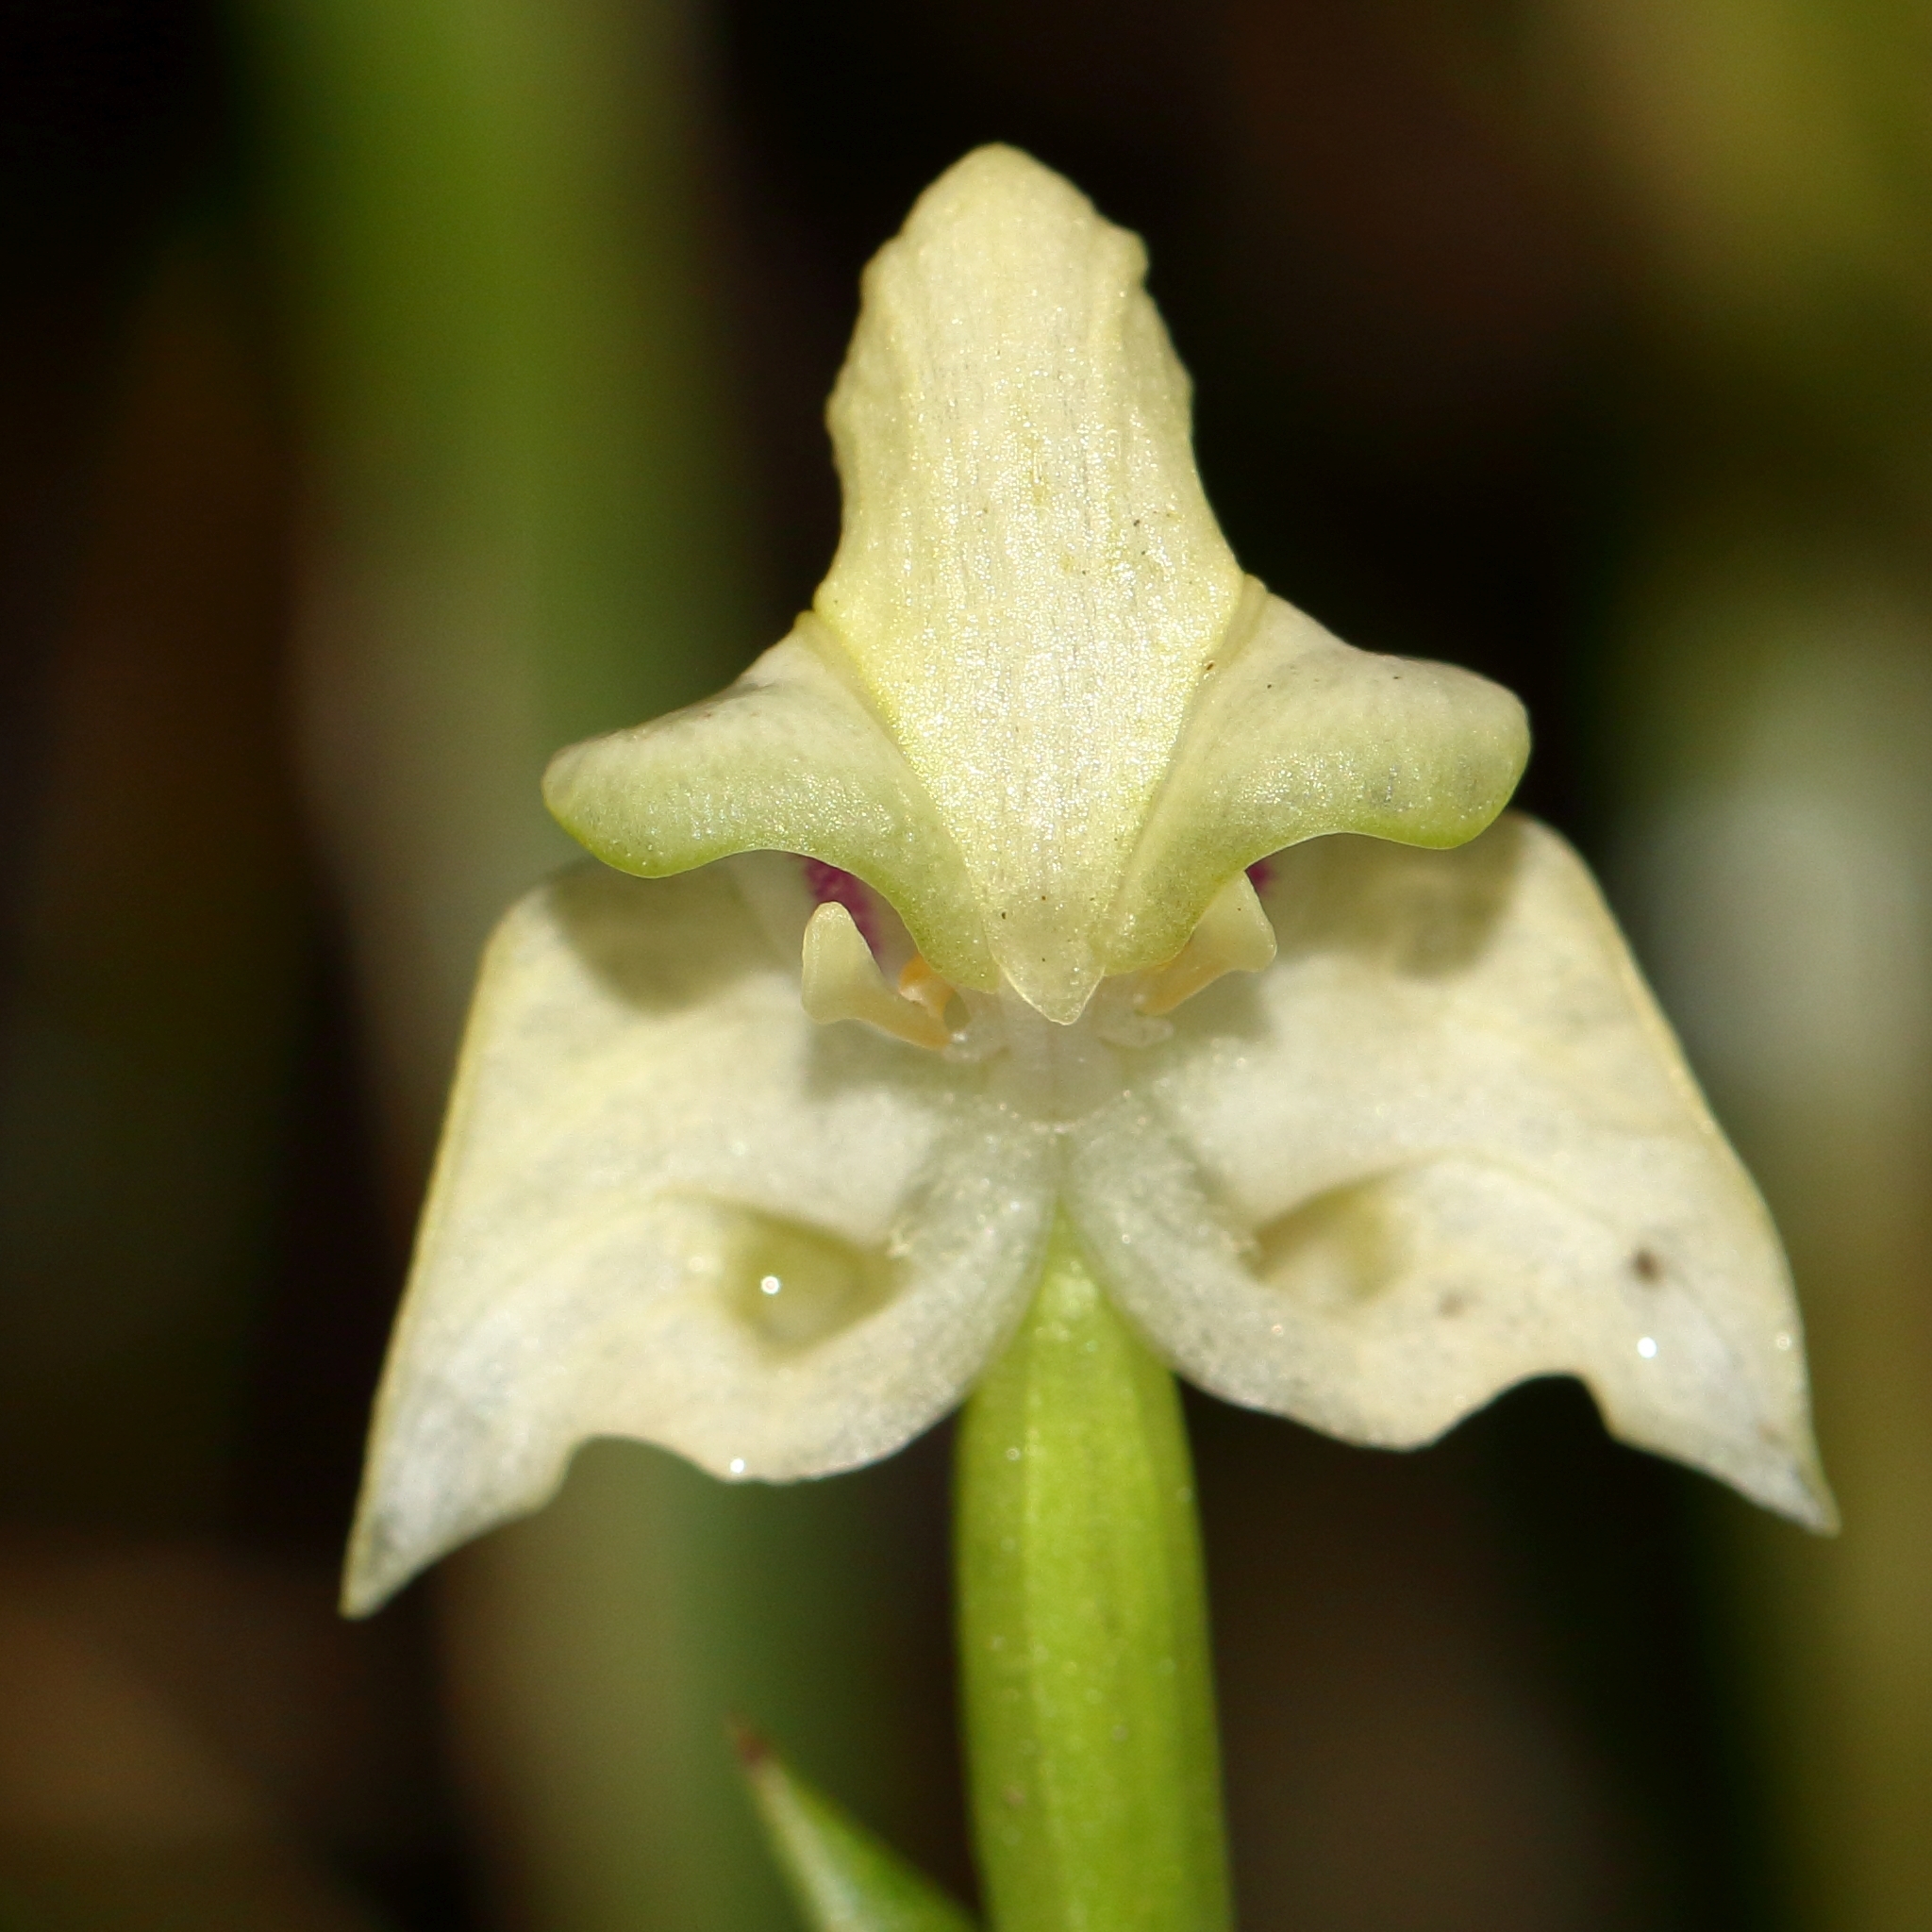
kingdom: Plantae
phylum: Tracheophyta
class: Liliopsida
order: Asparagales
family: Orchidaceae
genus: Disperis
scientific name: Disperis lindleyana
